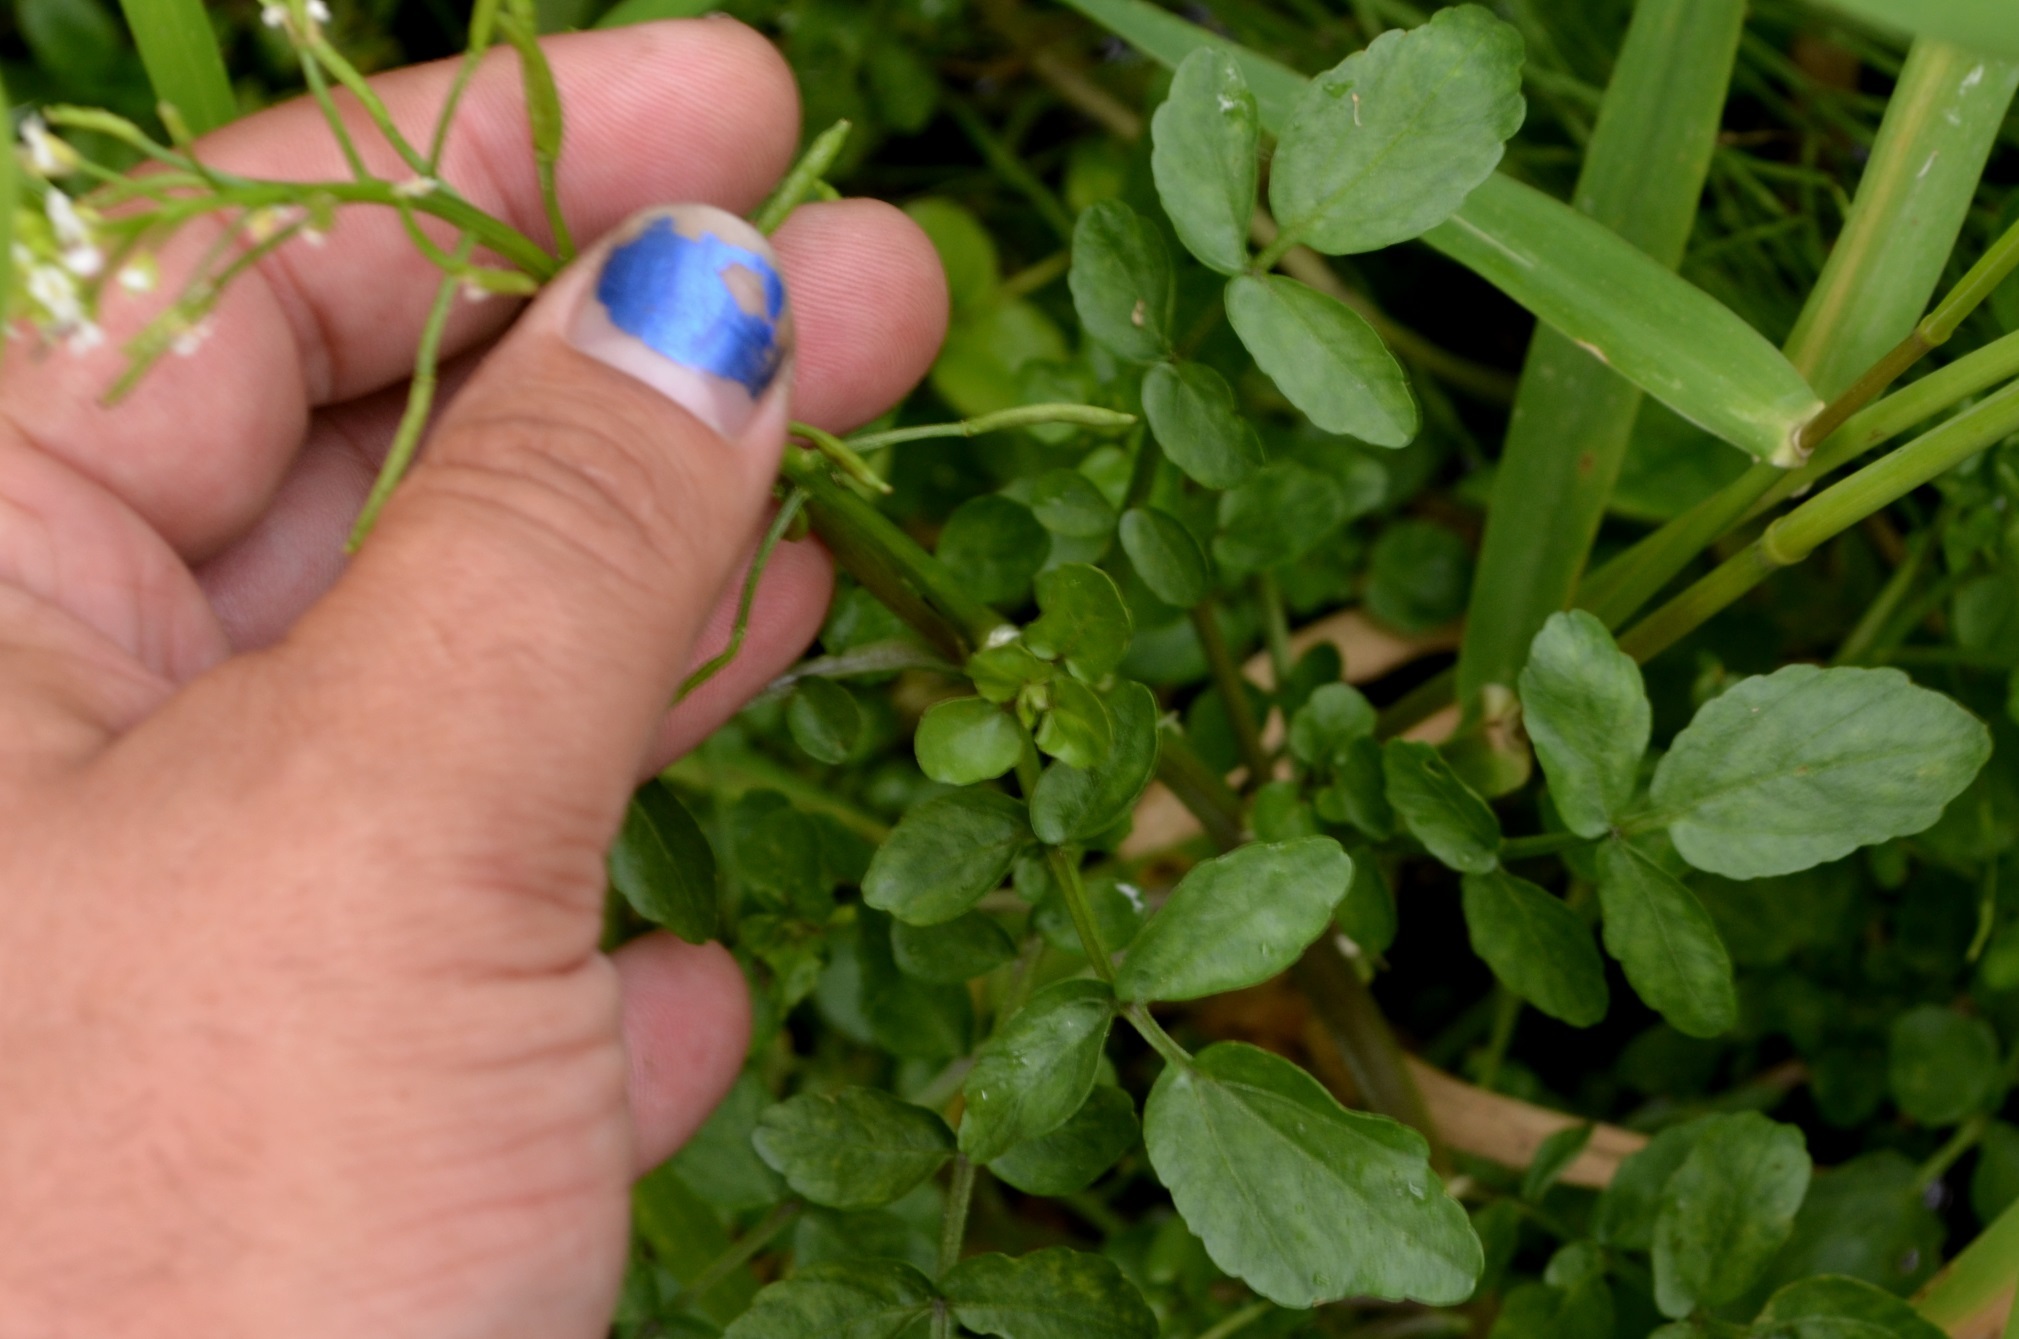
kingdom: Plantae
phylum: Tracheophyta
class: Magnoliopsida
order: Brassicales
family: Brassicaceae
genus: Nasturtium
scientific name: Nasturtium officinale
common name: Watercress
